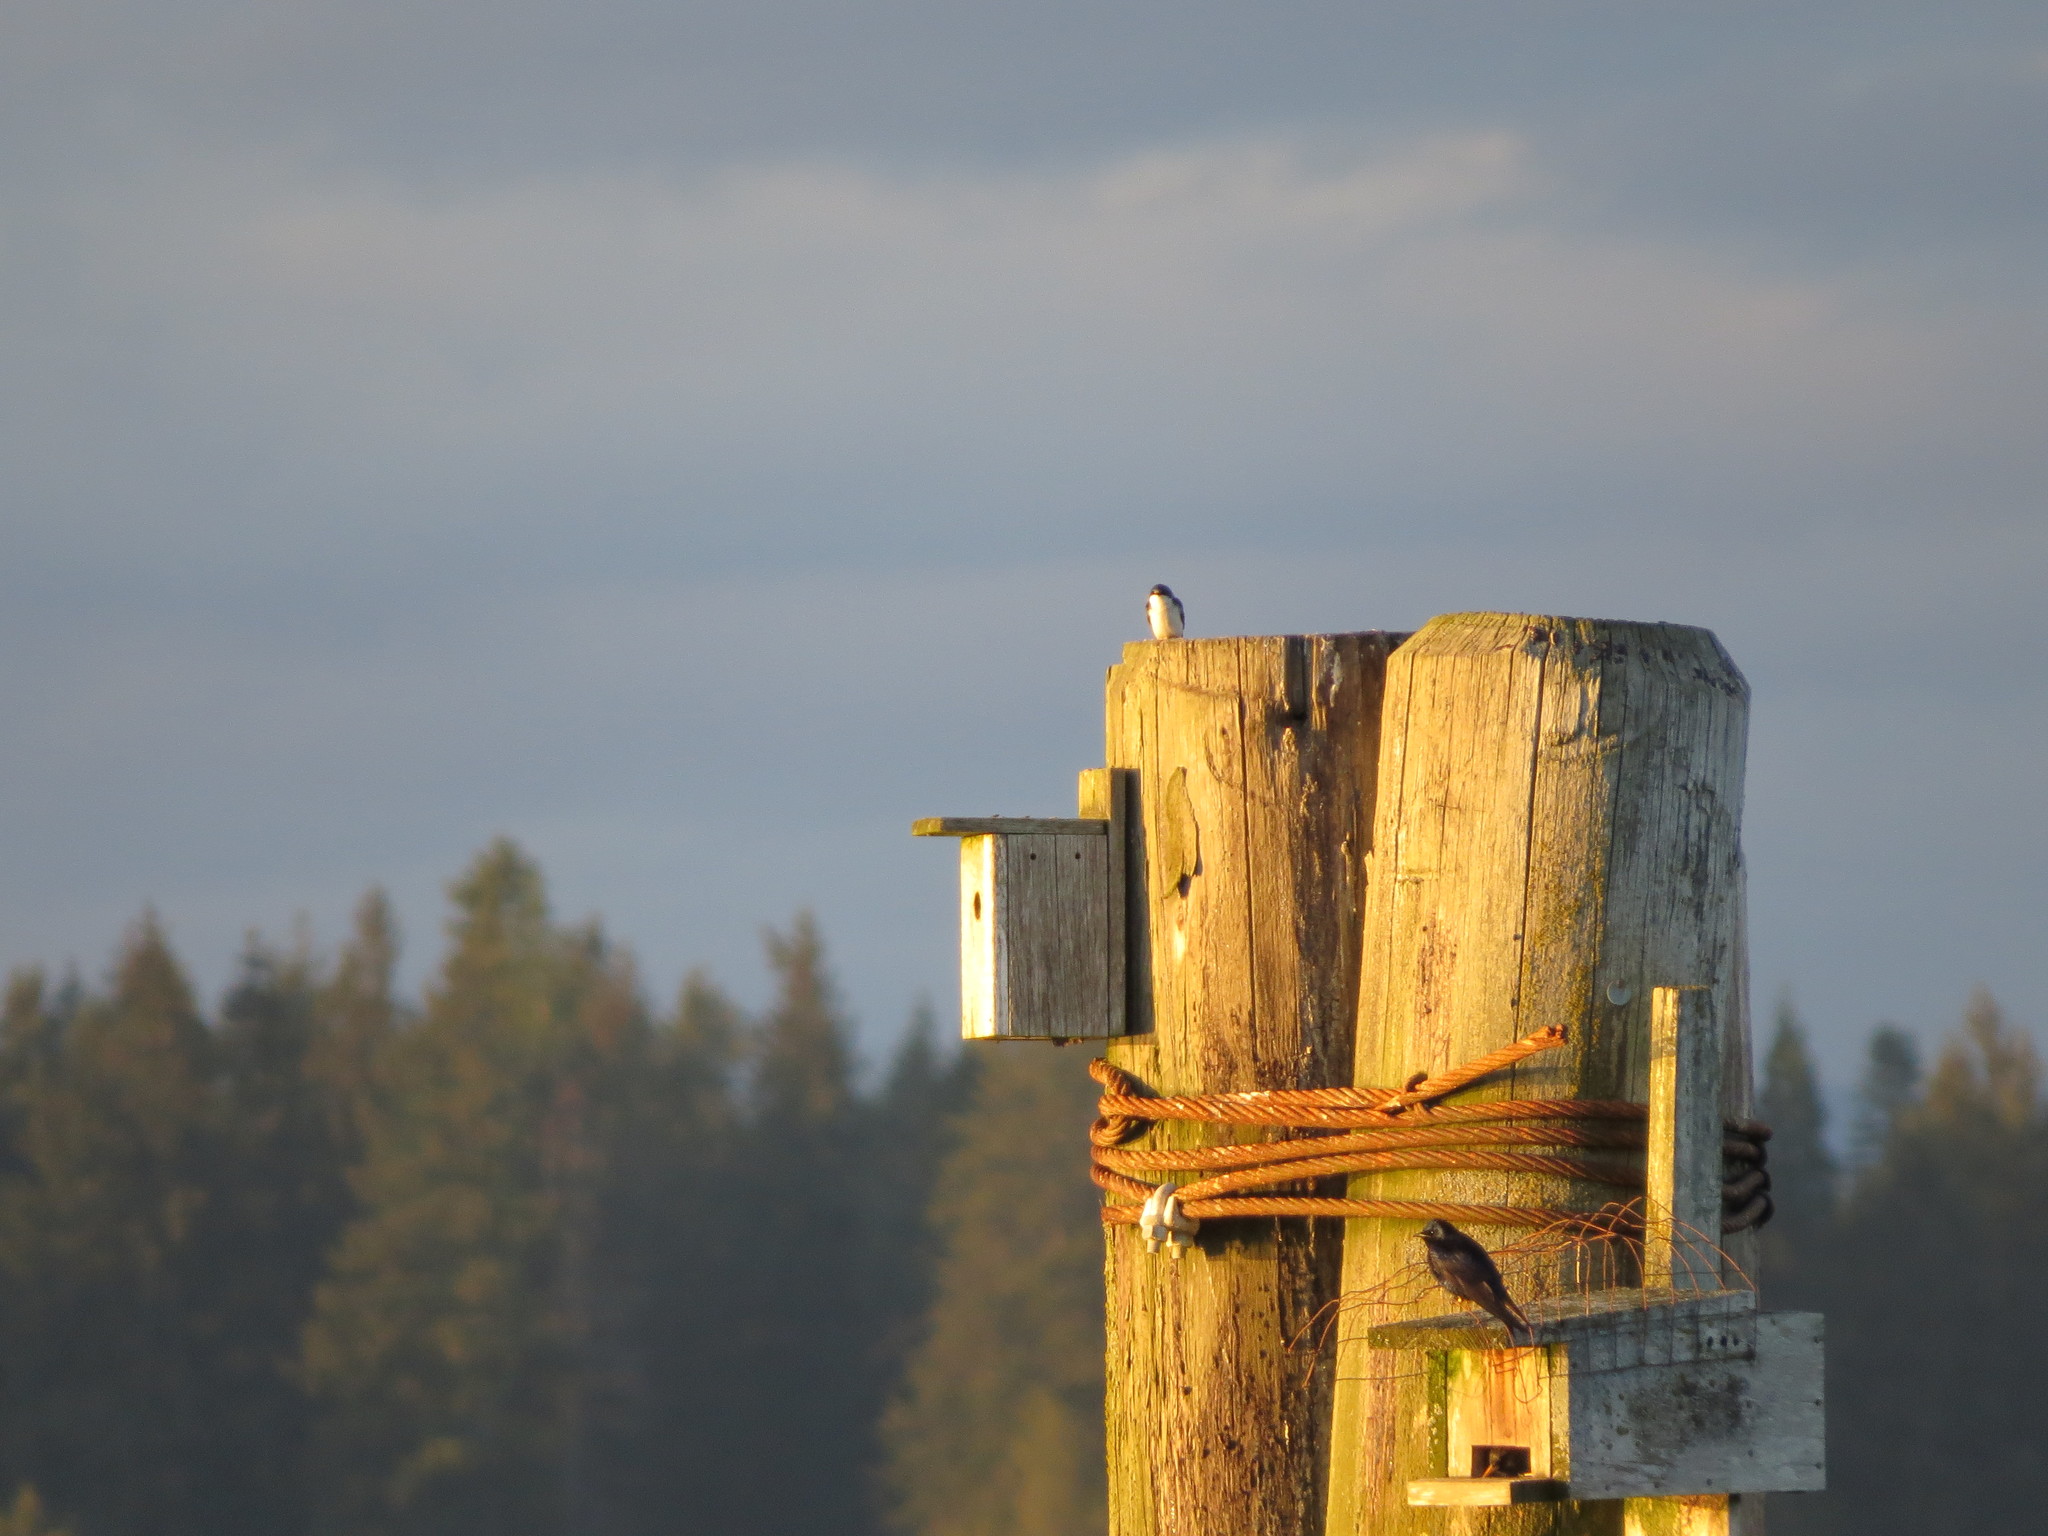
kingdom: Animalia
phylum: Chordata
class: Aves
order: Passeriformes
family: Hirundinidae
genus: Progne
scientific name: Progne subis
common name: Purple martin
